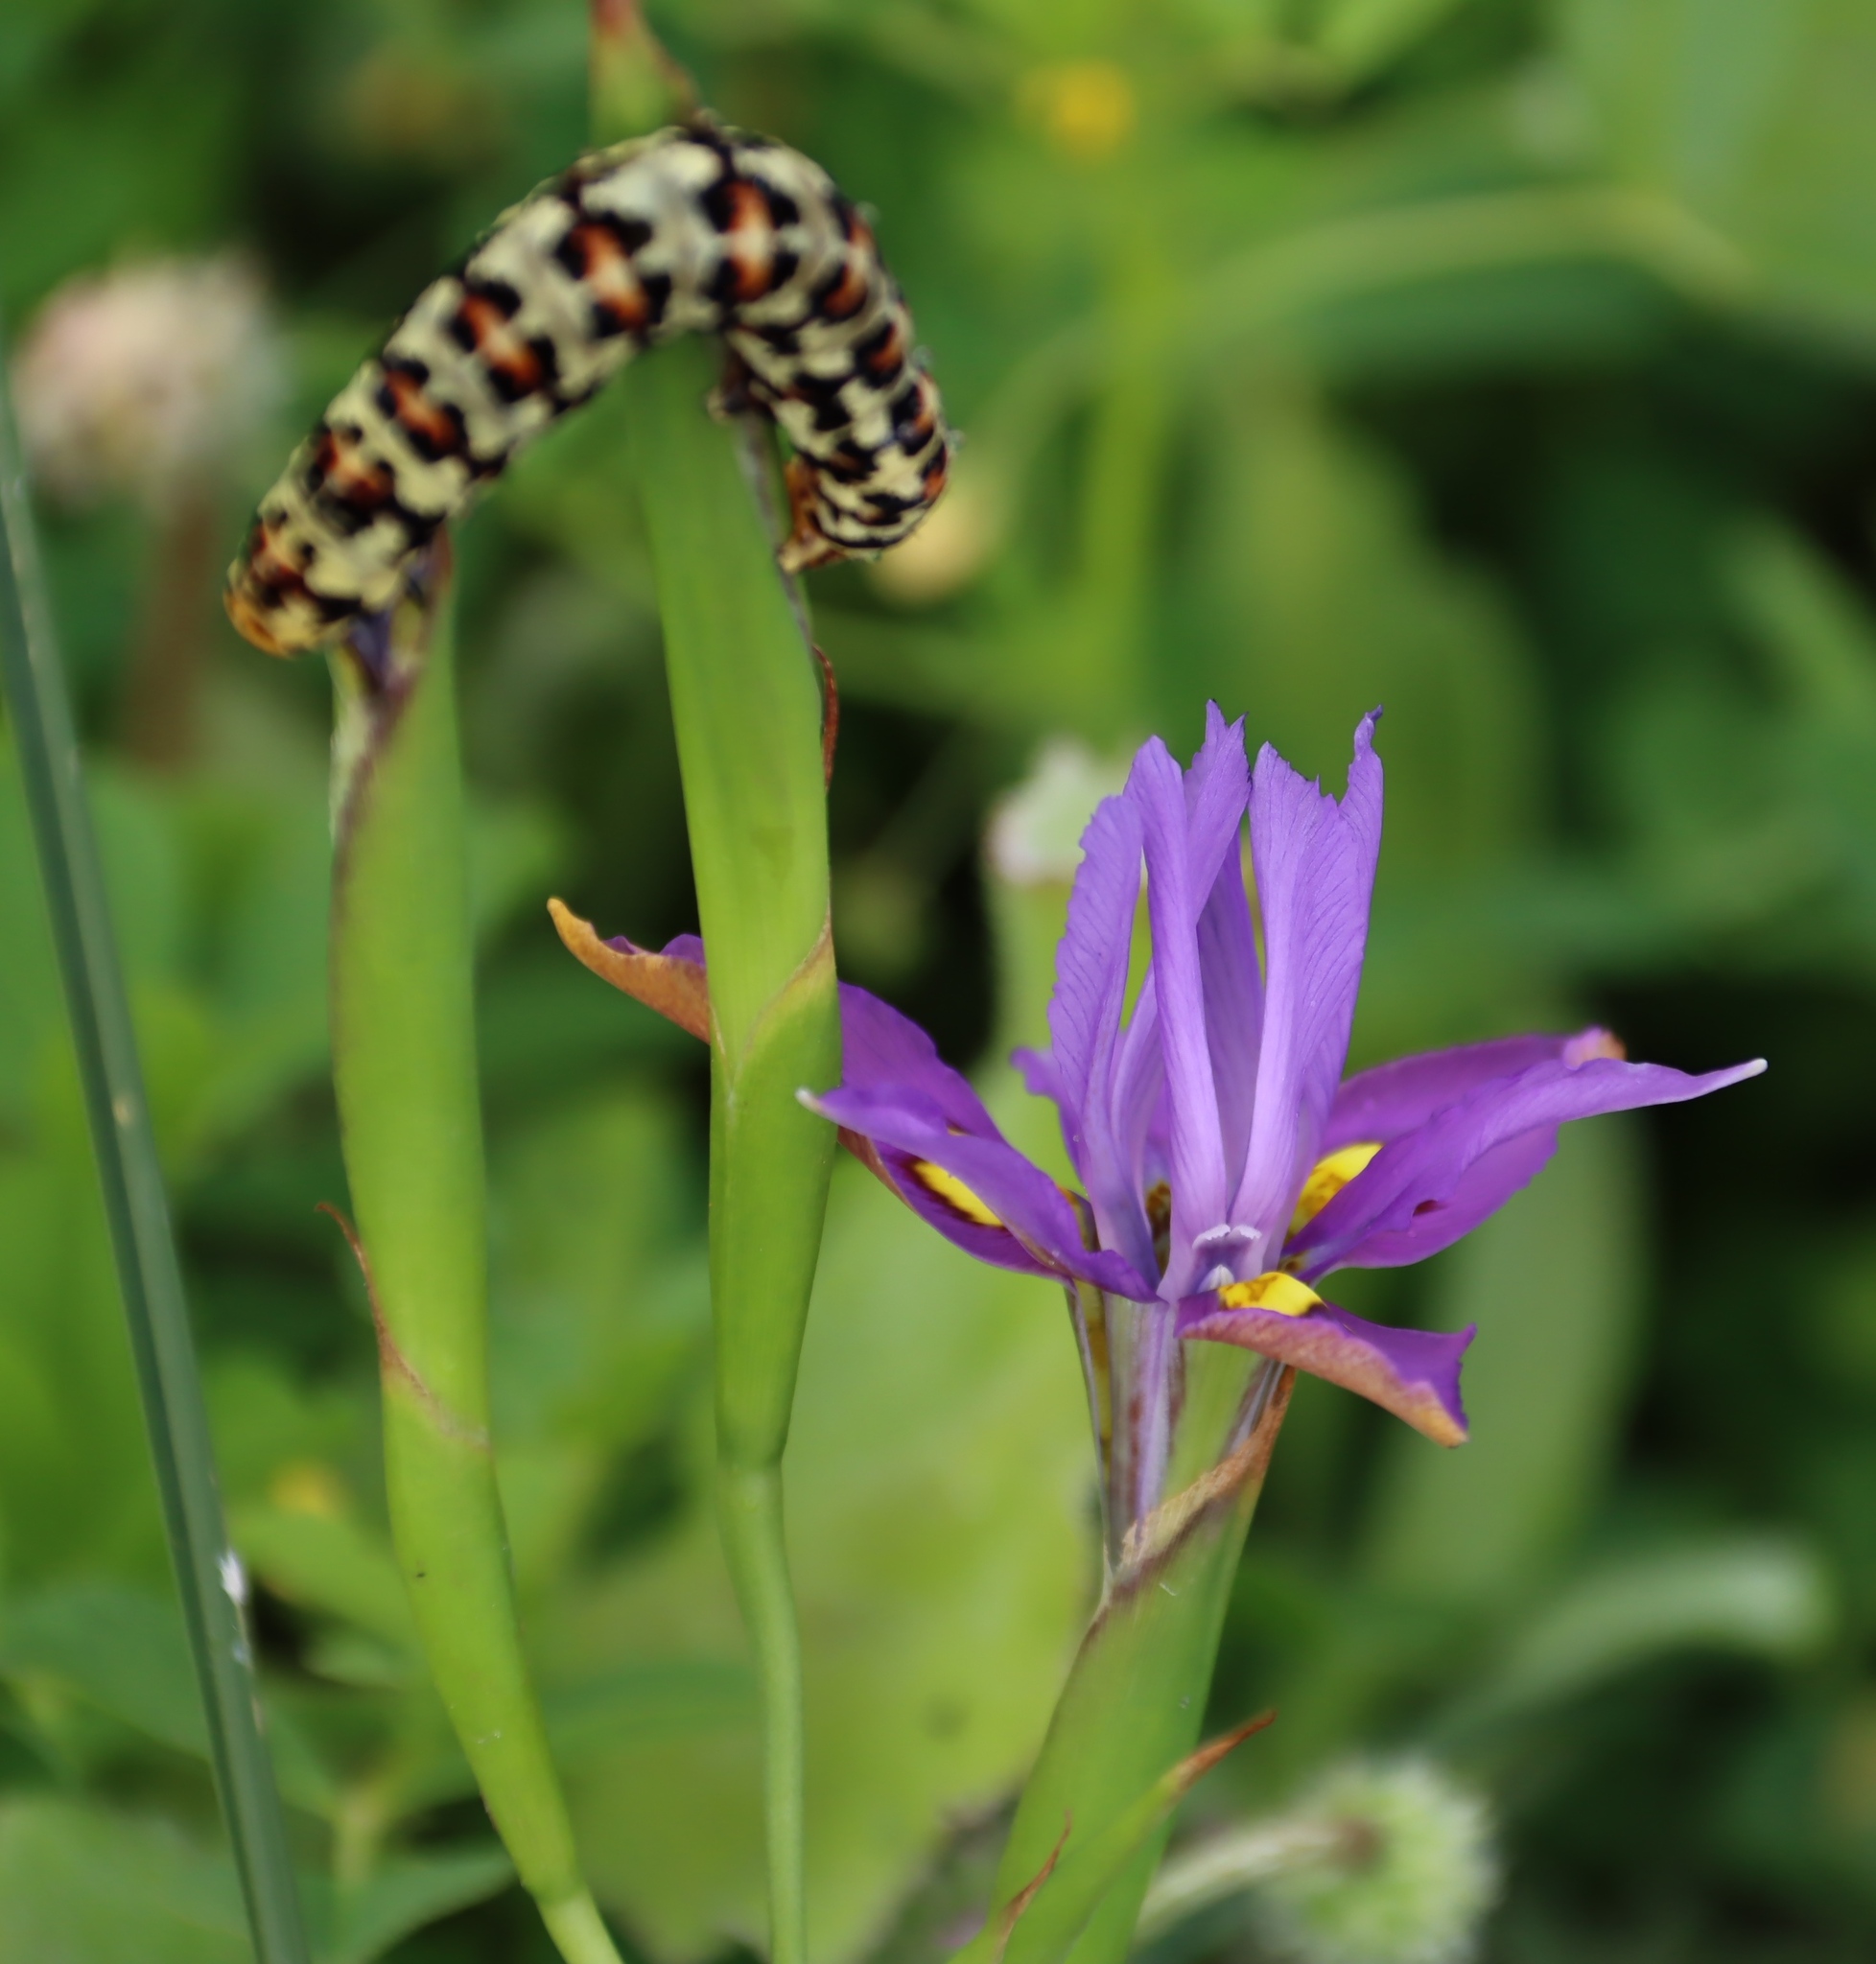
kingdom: Animalia
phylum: Arthropoda
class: Insecta
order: Lepidoptera
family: Noctuidae
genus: Diaphone
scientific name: Diaphone eumela
